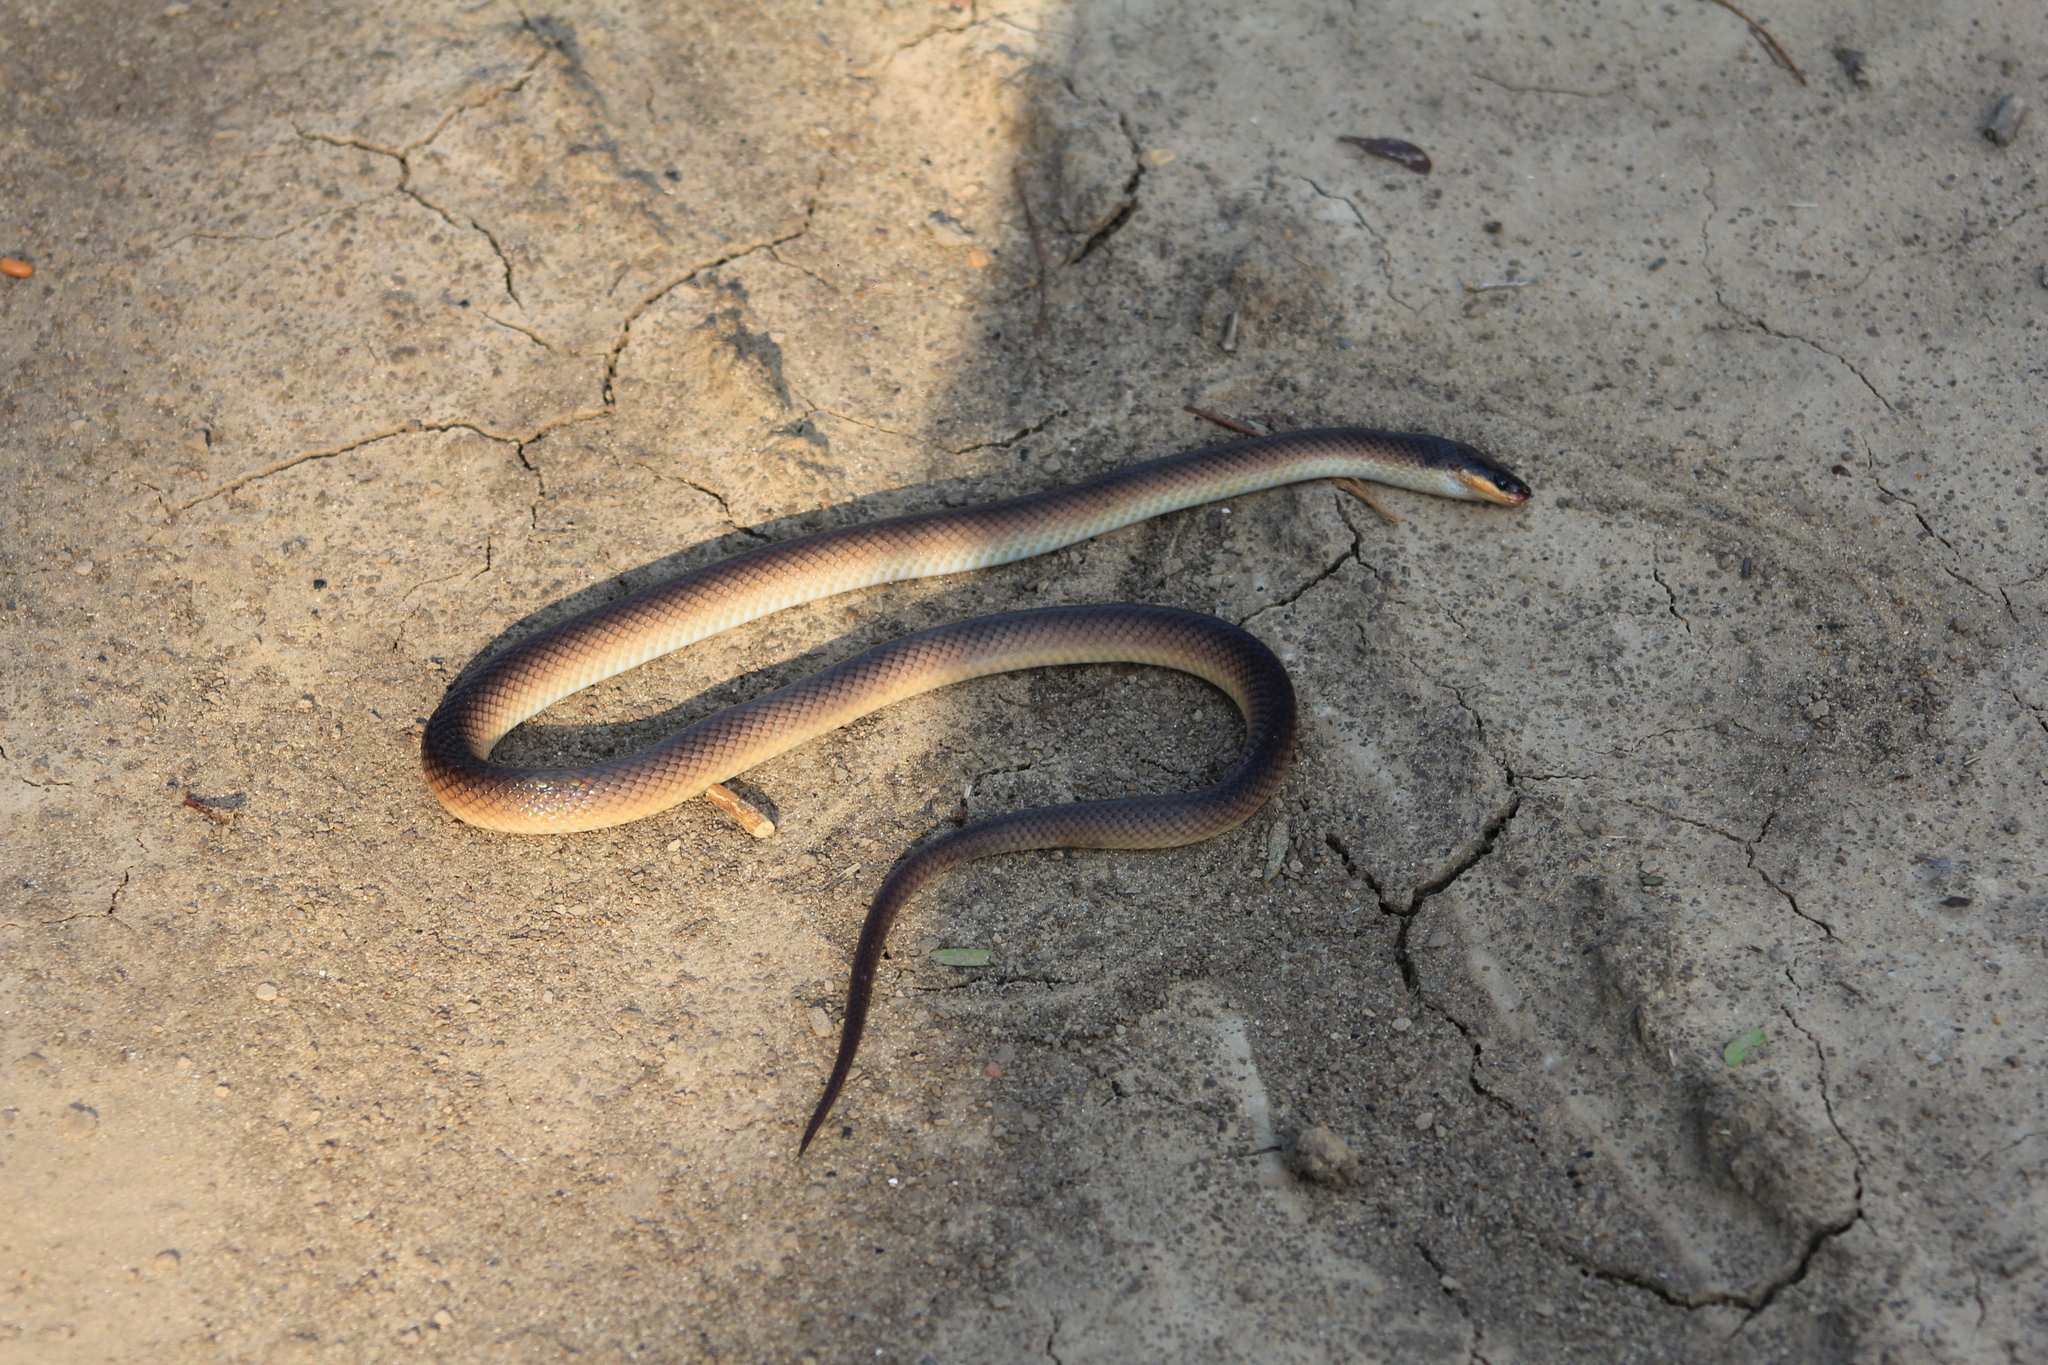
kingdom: Animalia
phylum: Chordata
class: Squamata
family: Colubridae
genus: Mussurana
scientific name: Mussurana bicolor
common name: Two-colored mussurana
